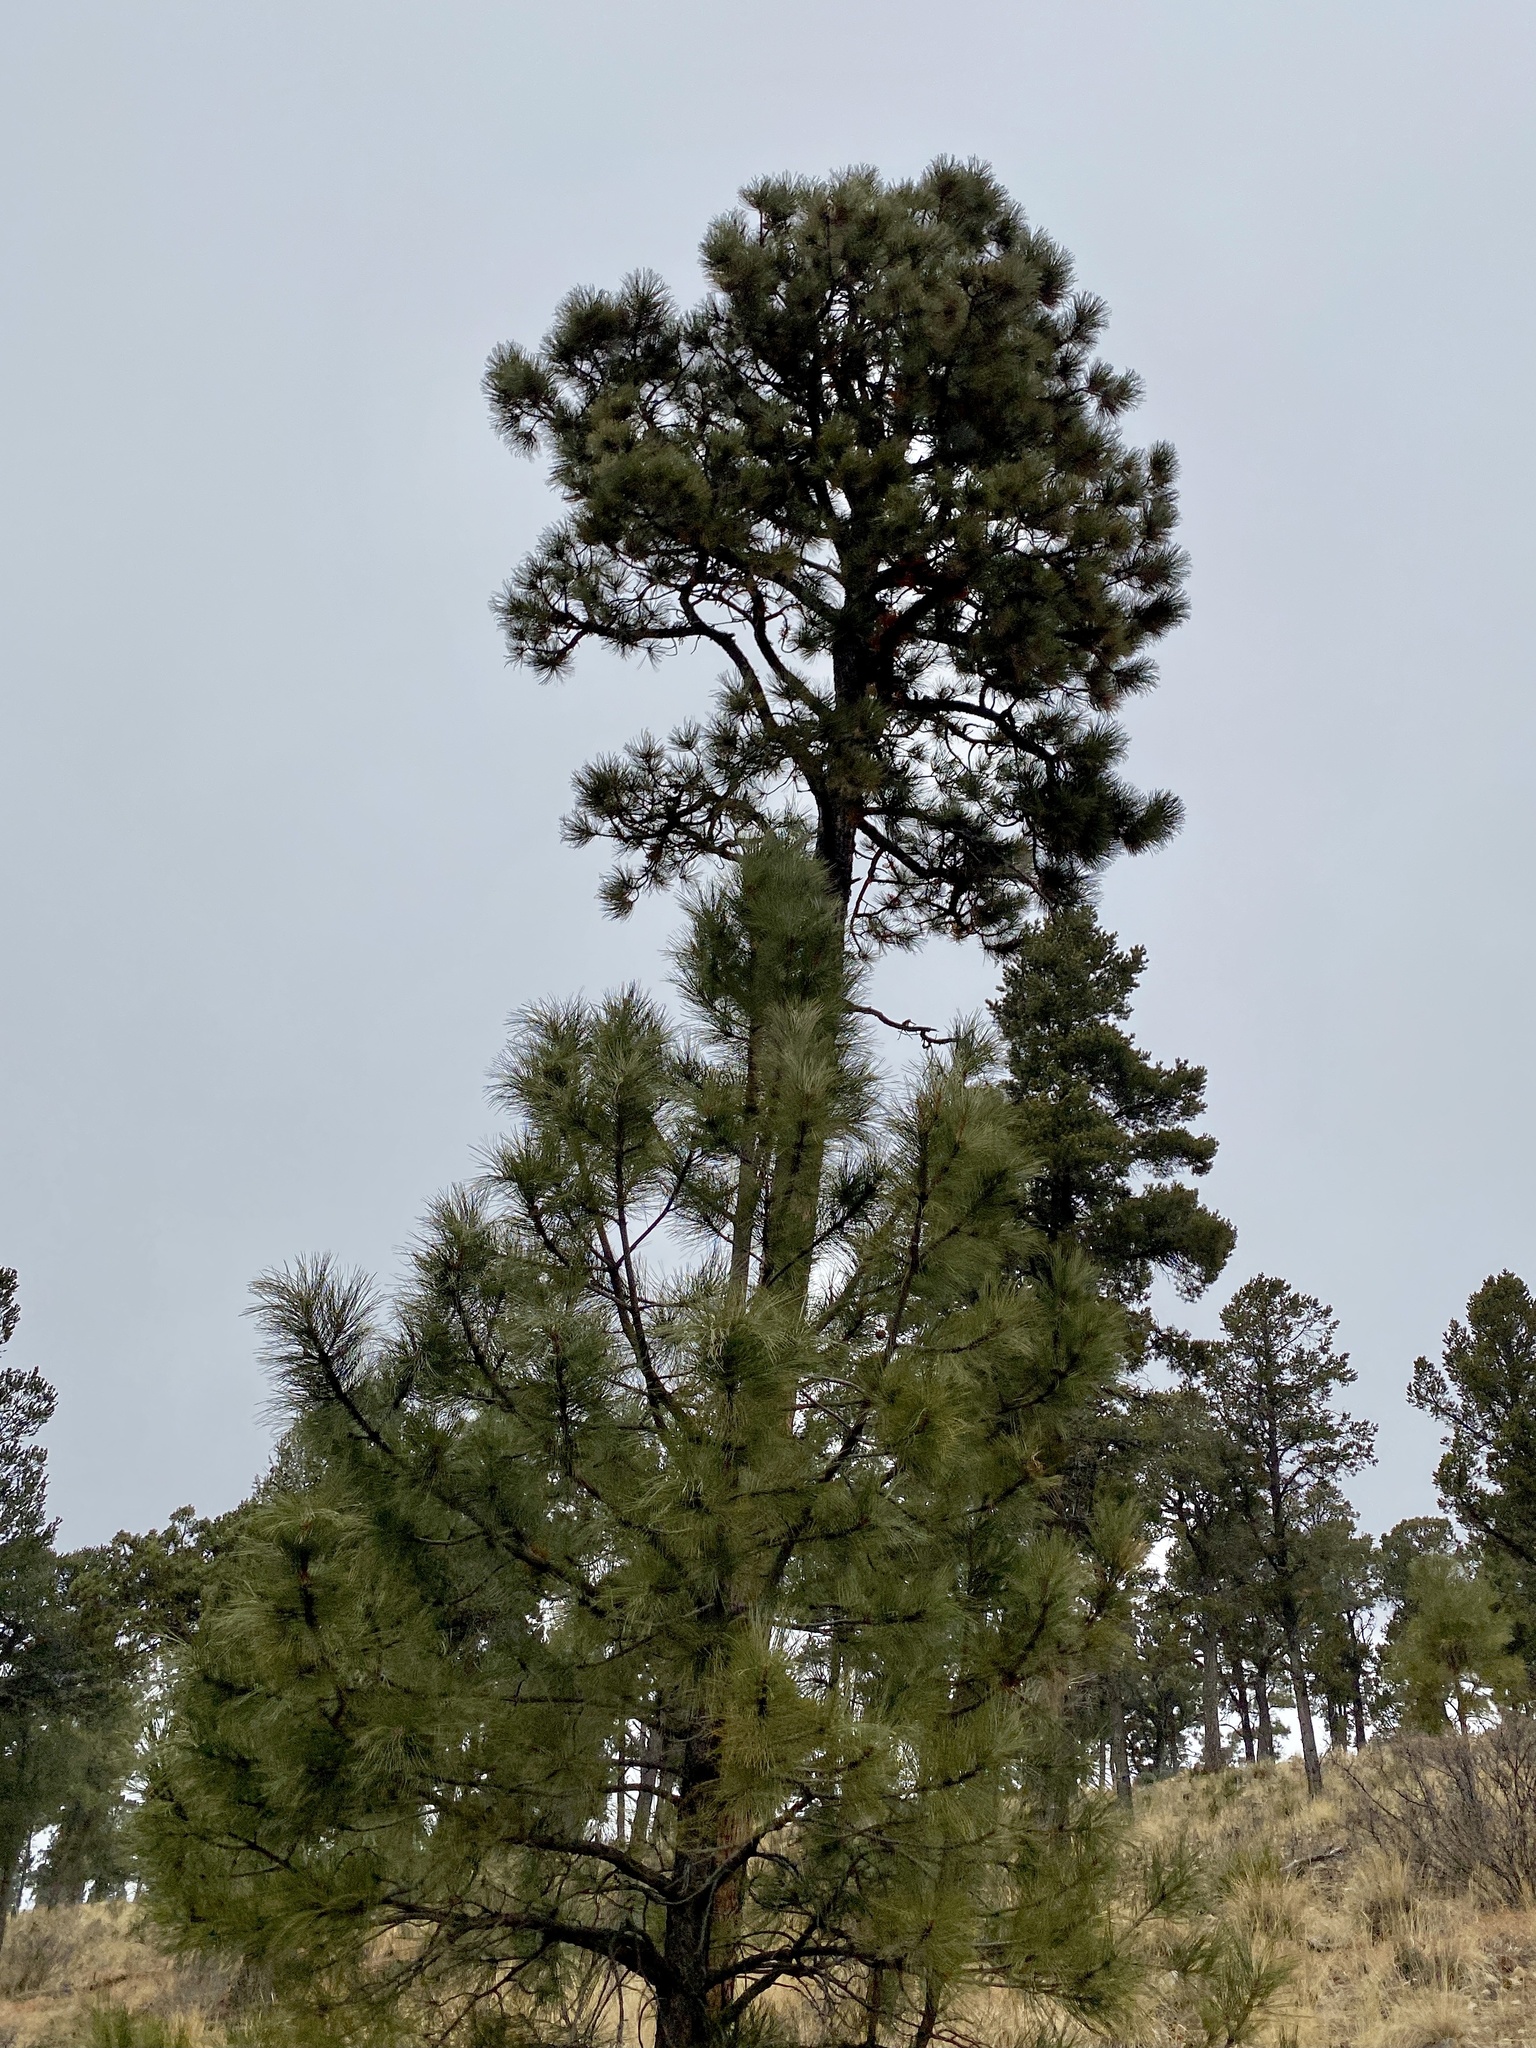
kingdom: Plantae
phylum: Tracheophyta
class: Pinopsida
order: Pinales
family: Pinaceae
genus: Pinus
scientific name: Pinus ponderosa
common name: Western yellow-pine
